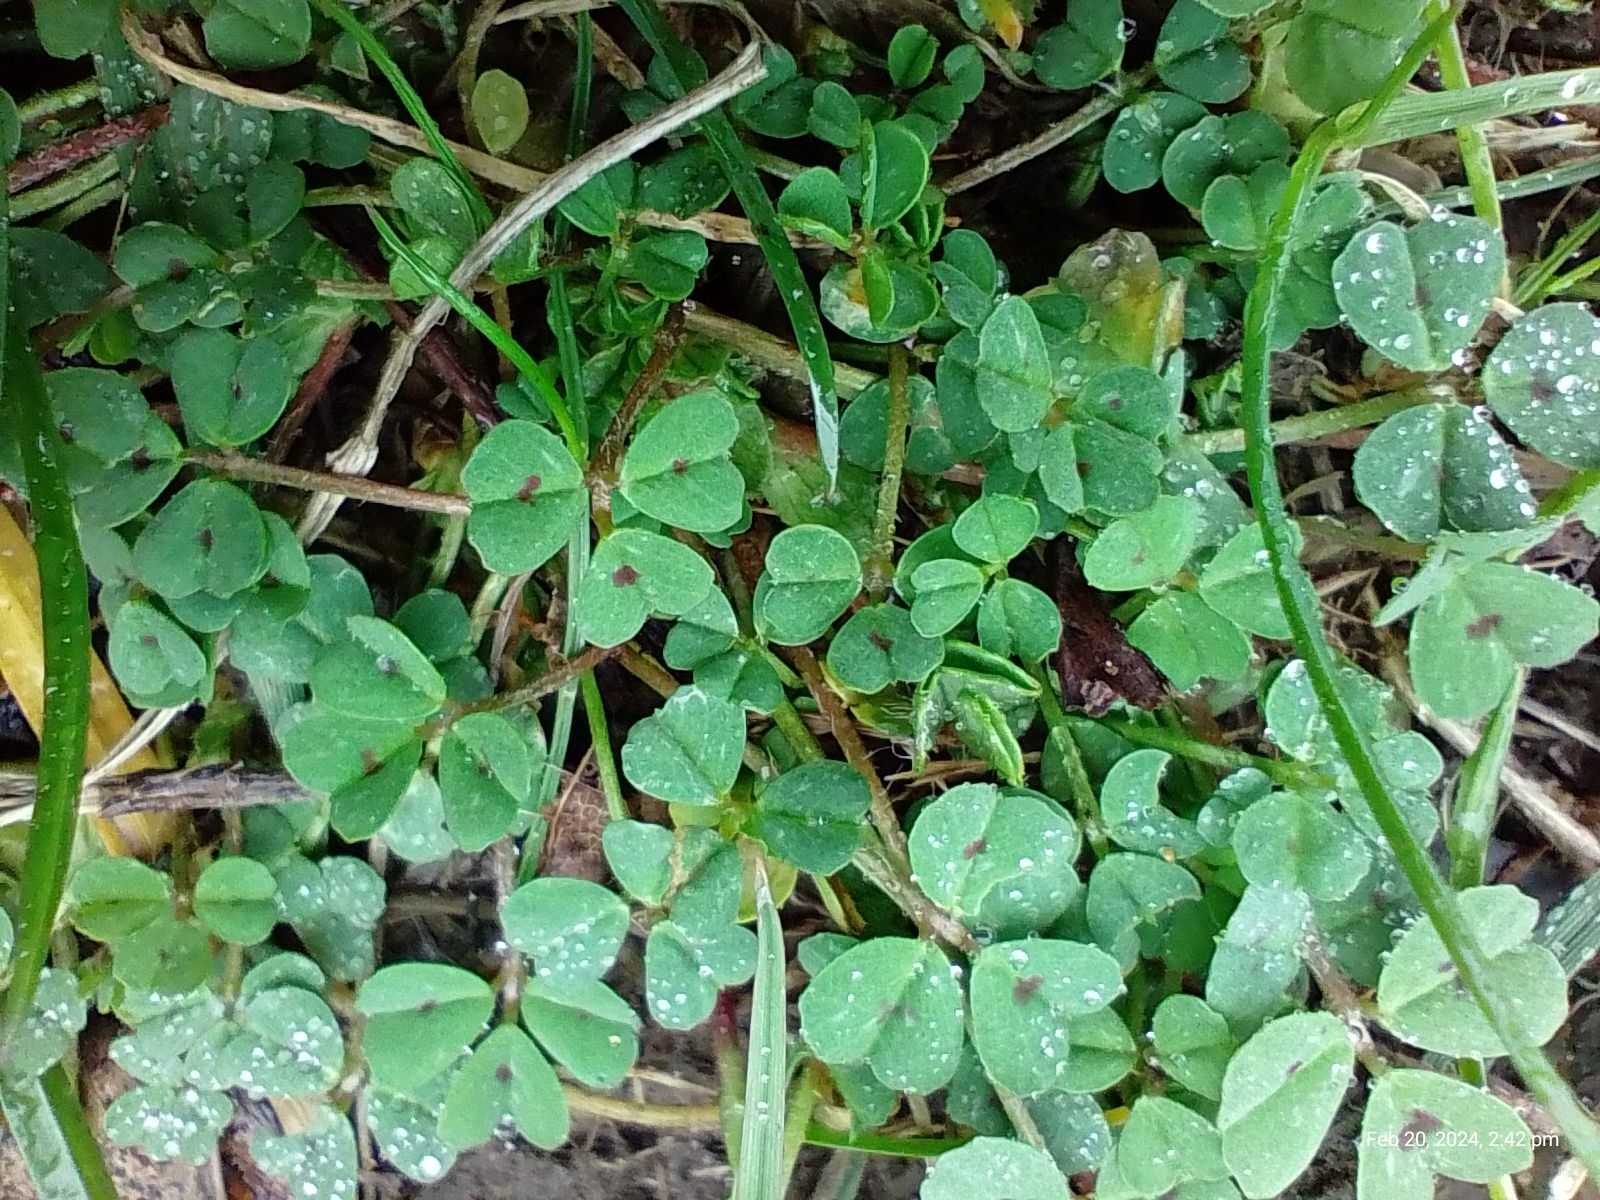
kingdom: Plantae
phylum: Tracheophyta
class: Magnoliopsida
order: Fabales
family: Fabaceae
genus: Medicago
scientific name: Medicago arabica
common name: Spotted medick
